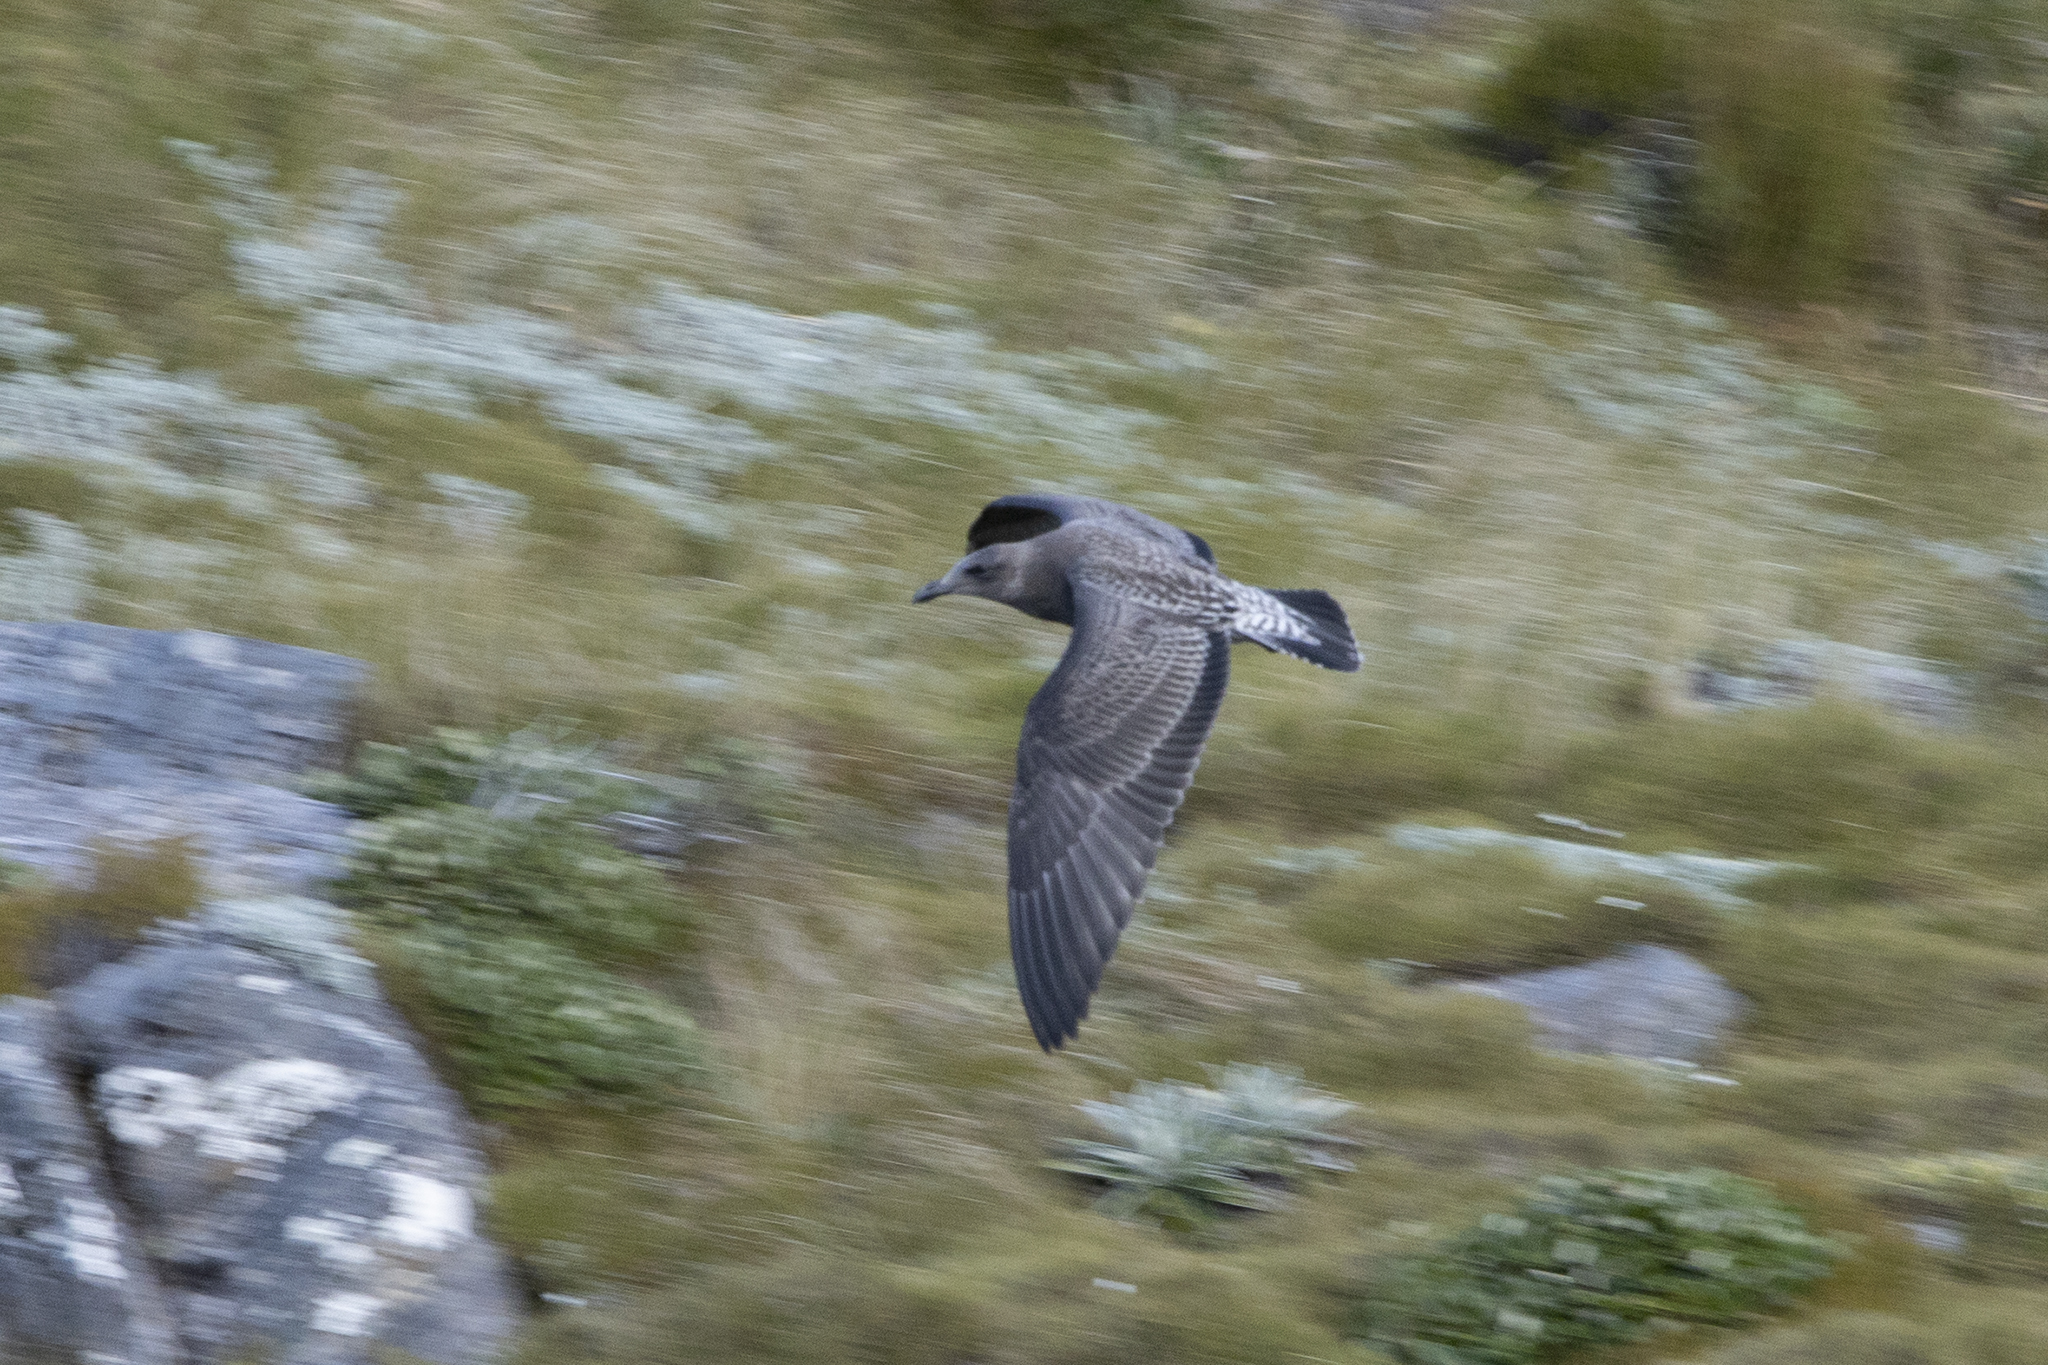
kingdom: Animalia
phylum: Chordata
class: Aves
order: Charadriiformes
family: Laridae
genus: Larus
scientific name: Larus dominicanus
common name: Kelp gull
